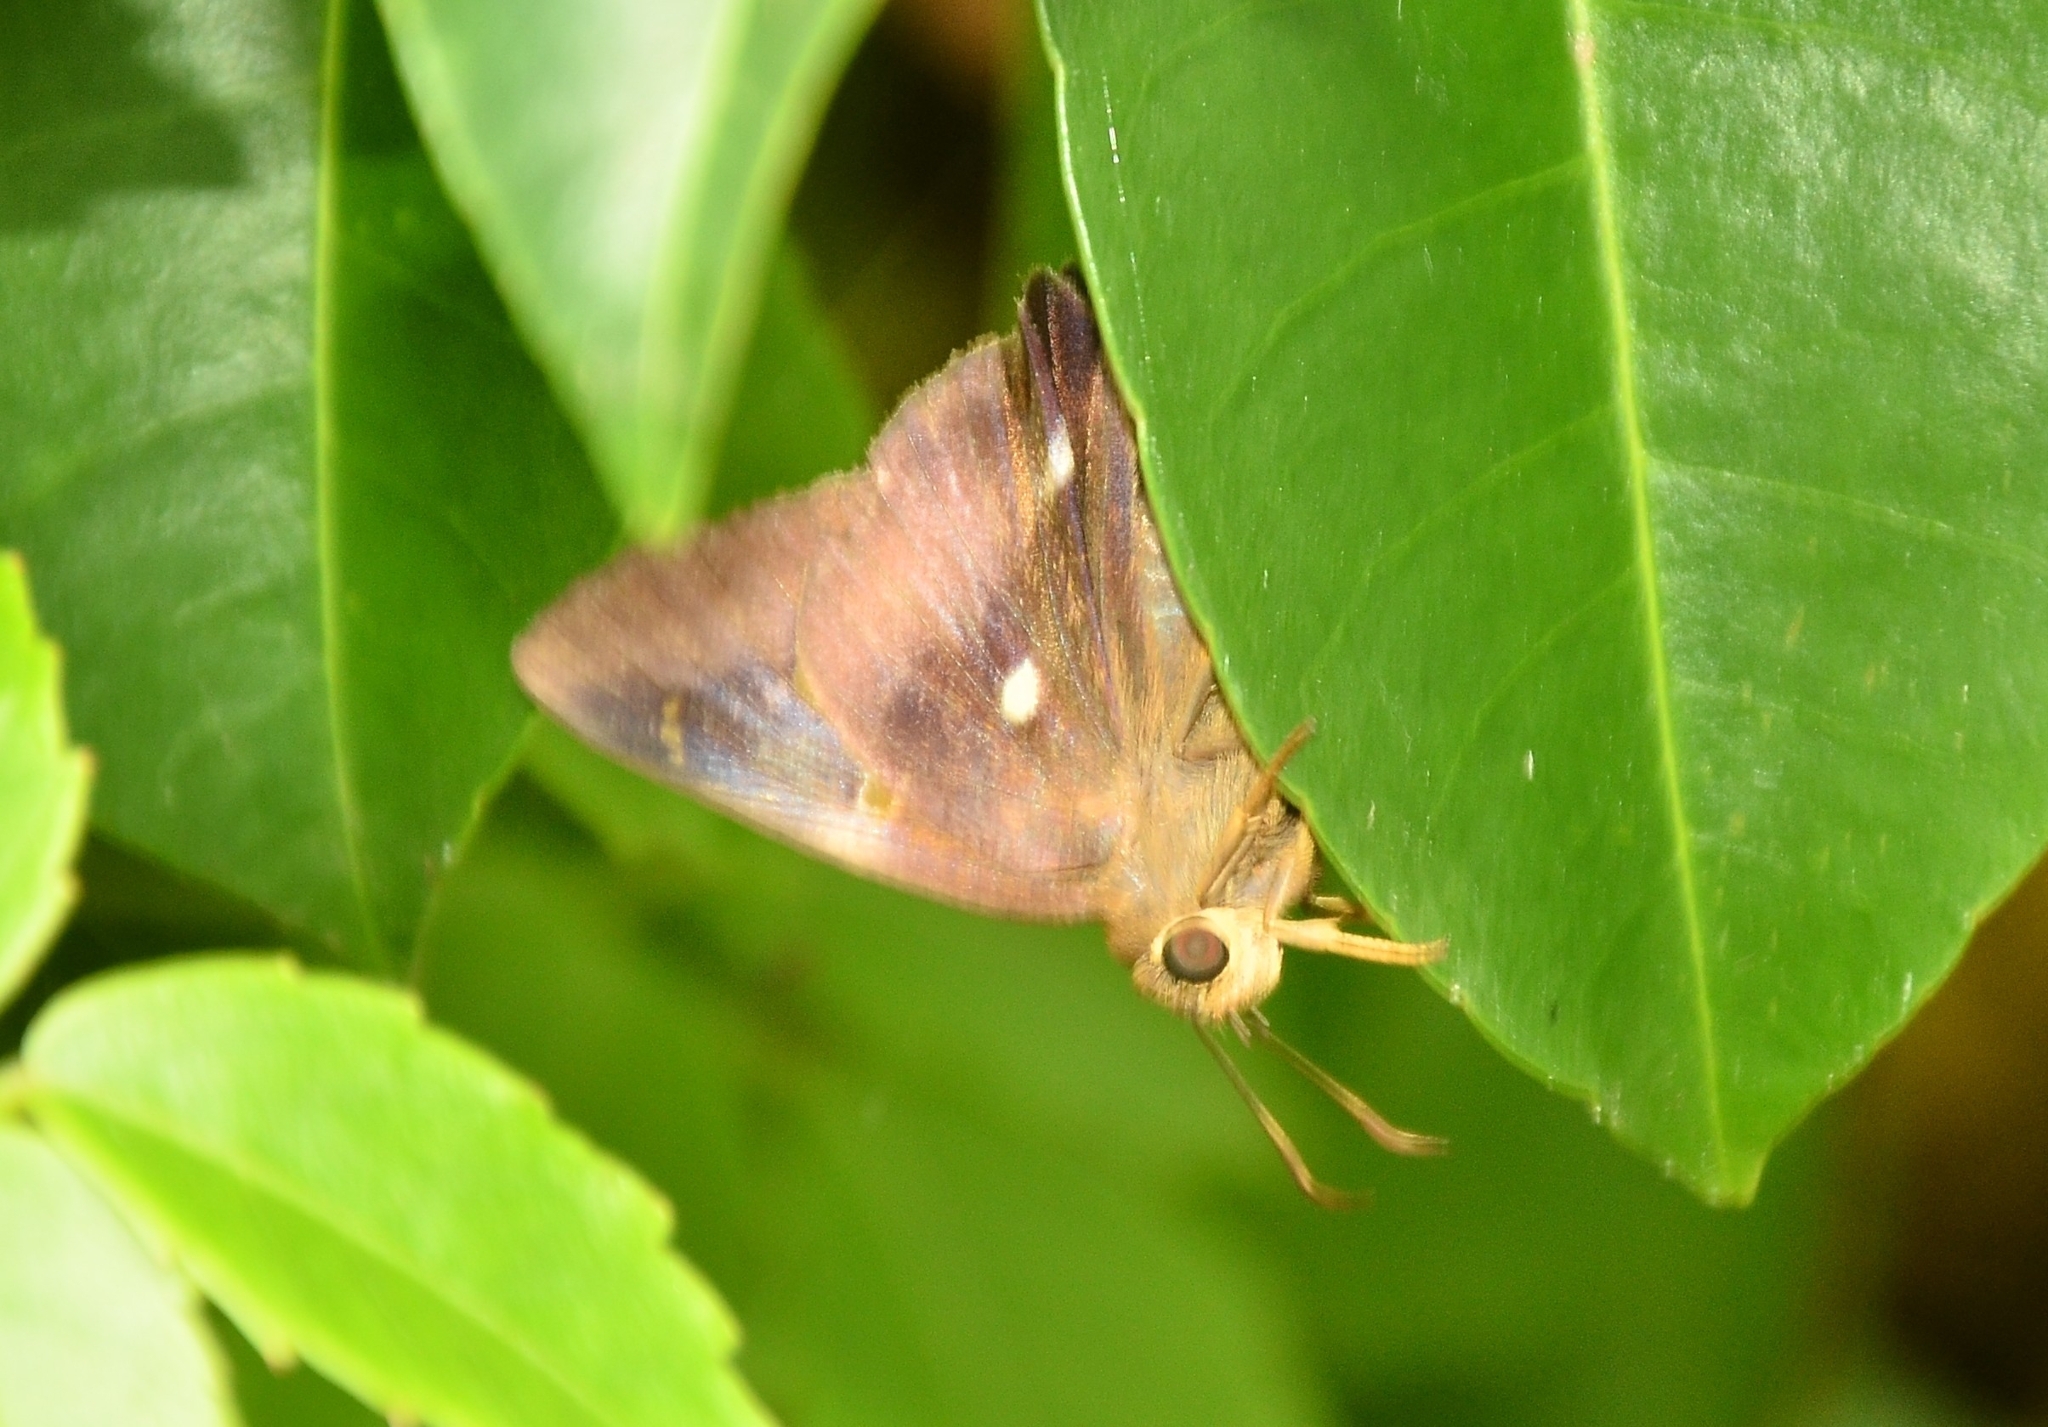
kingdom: Animalia
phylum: Arthropoda
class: Insecta
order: Lepidoptera
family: Hesperiidae
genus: Hasora
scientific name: Hasora badra
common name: Common awl
